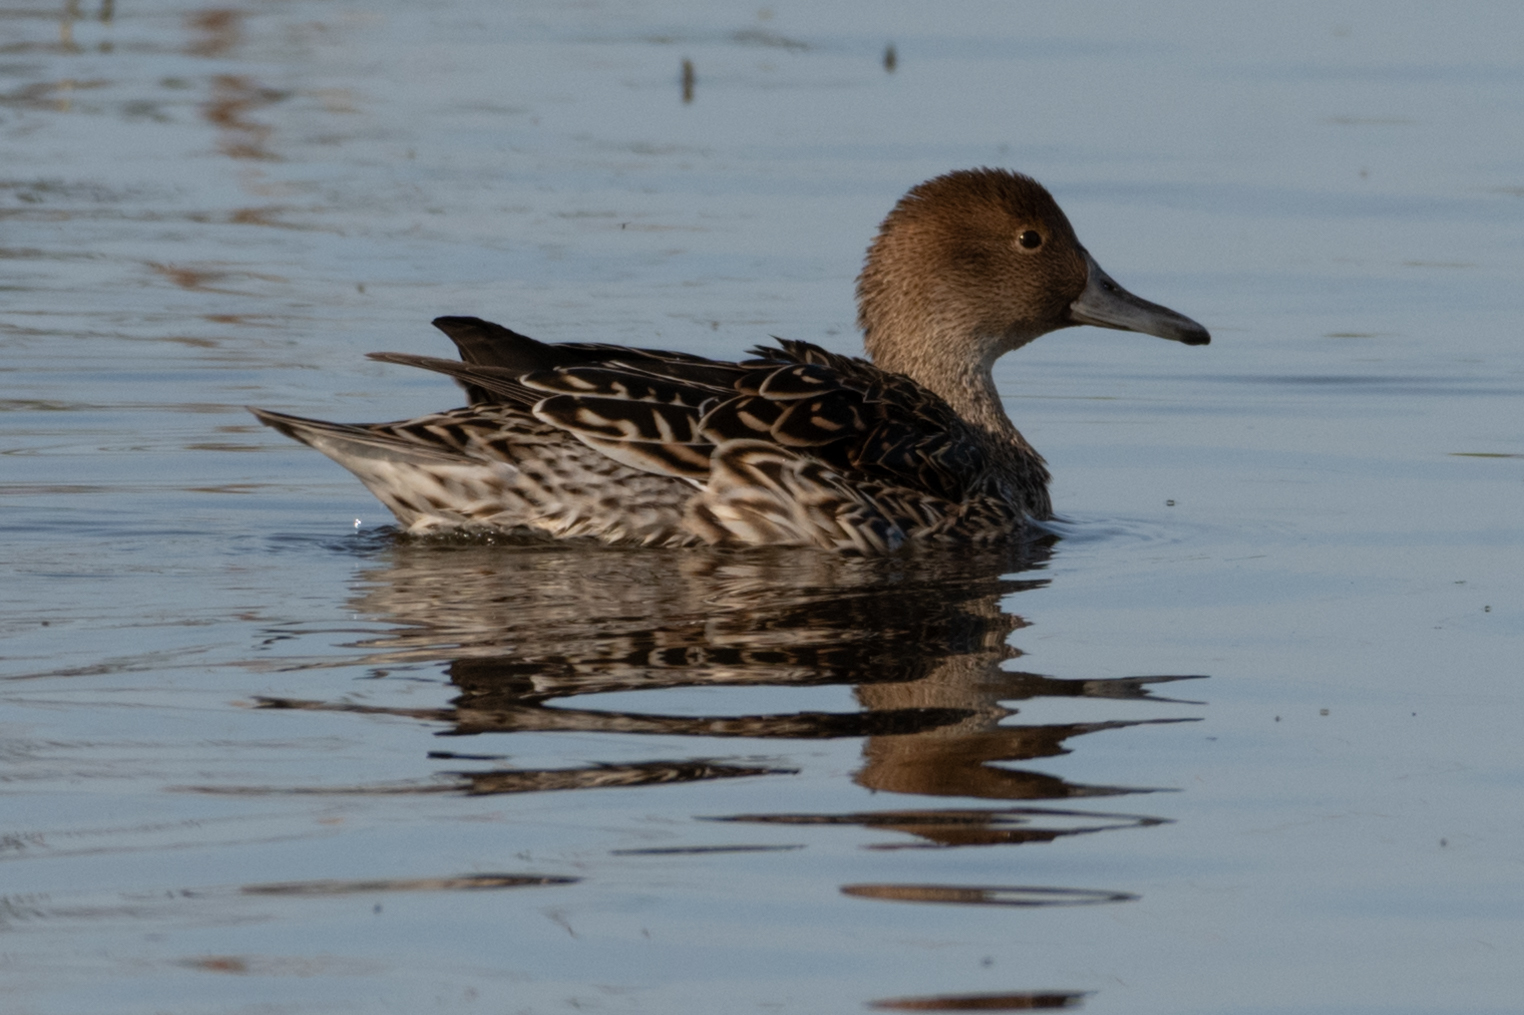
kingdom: Animalia
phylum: Chordata
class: Aves
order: Anseriformes
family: Anatidae
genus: Anas
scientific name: Anas acuta
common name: Northern pintail
